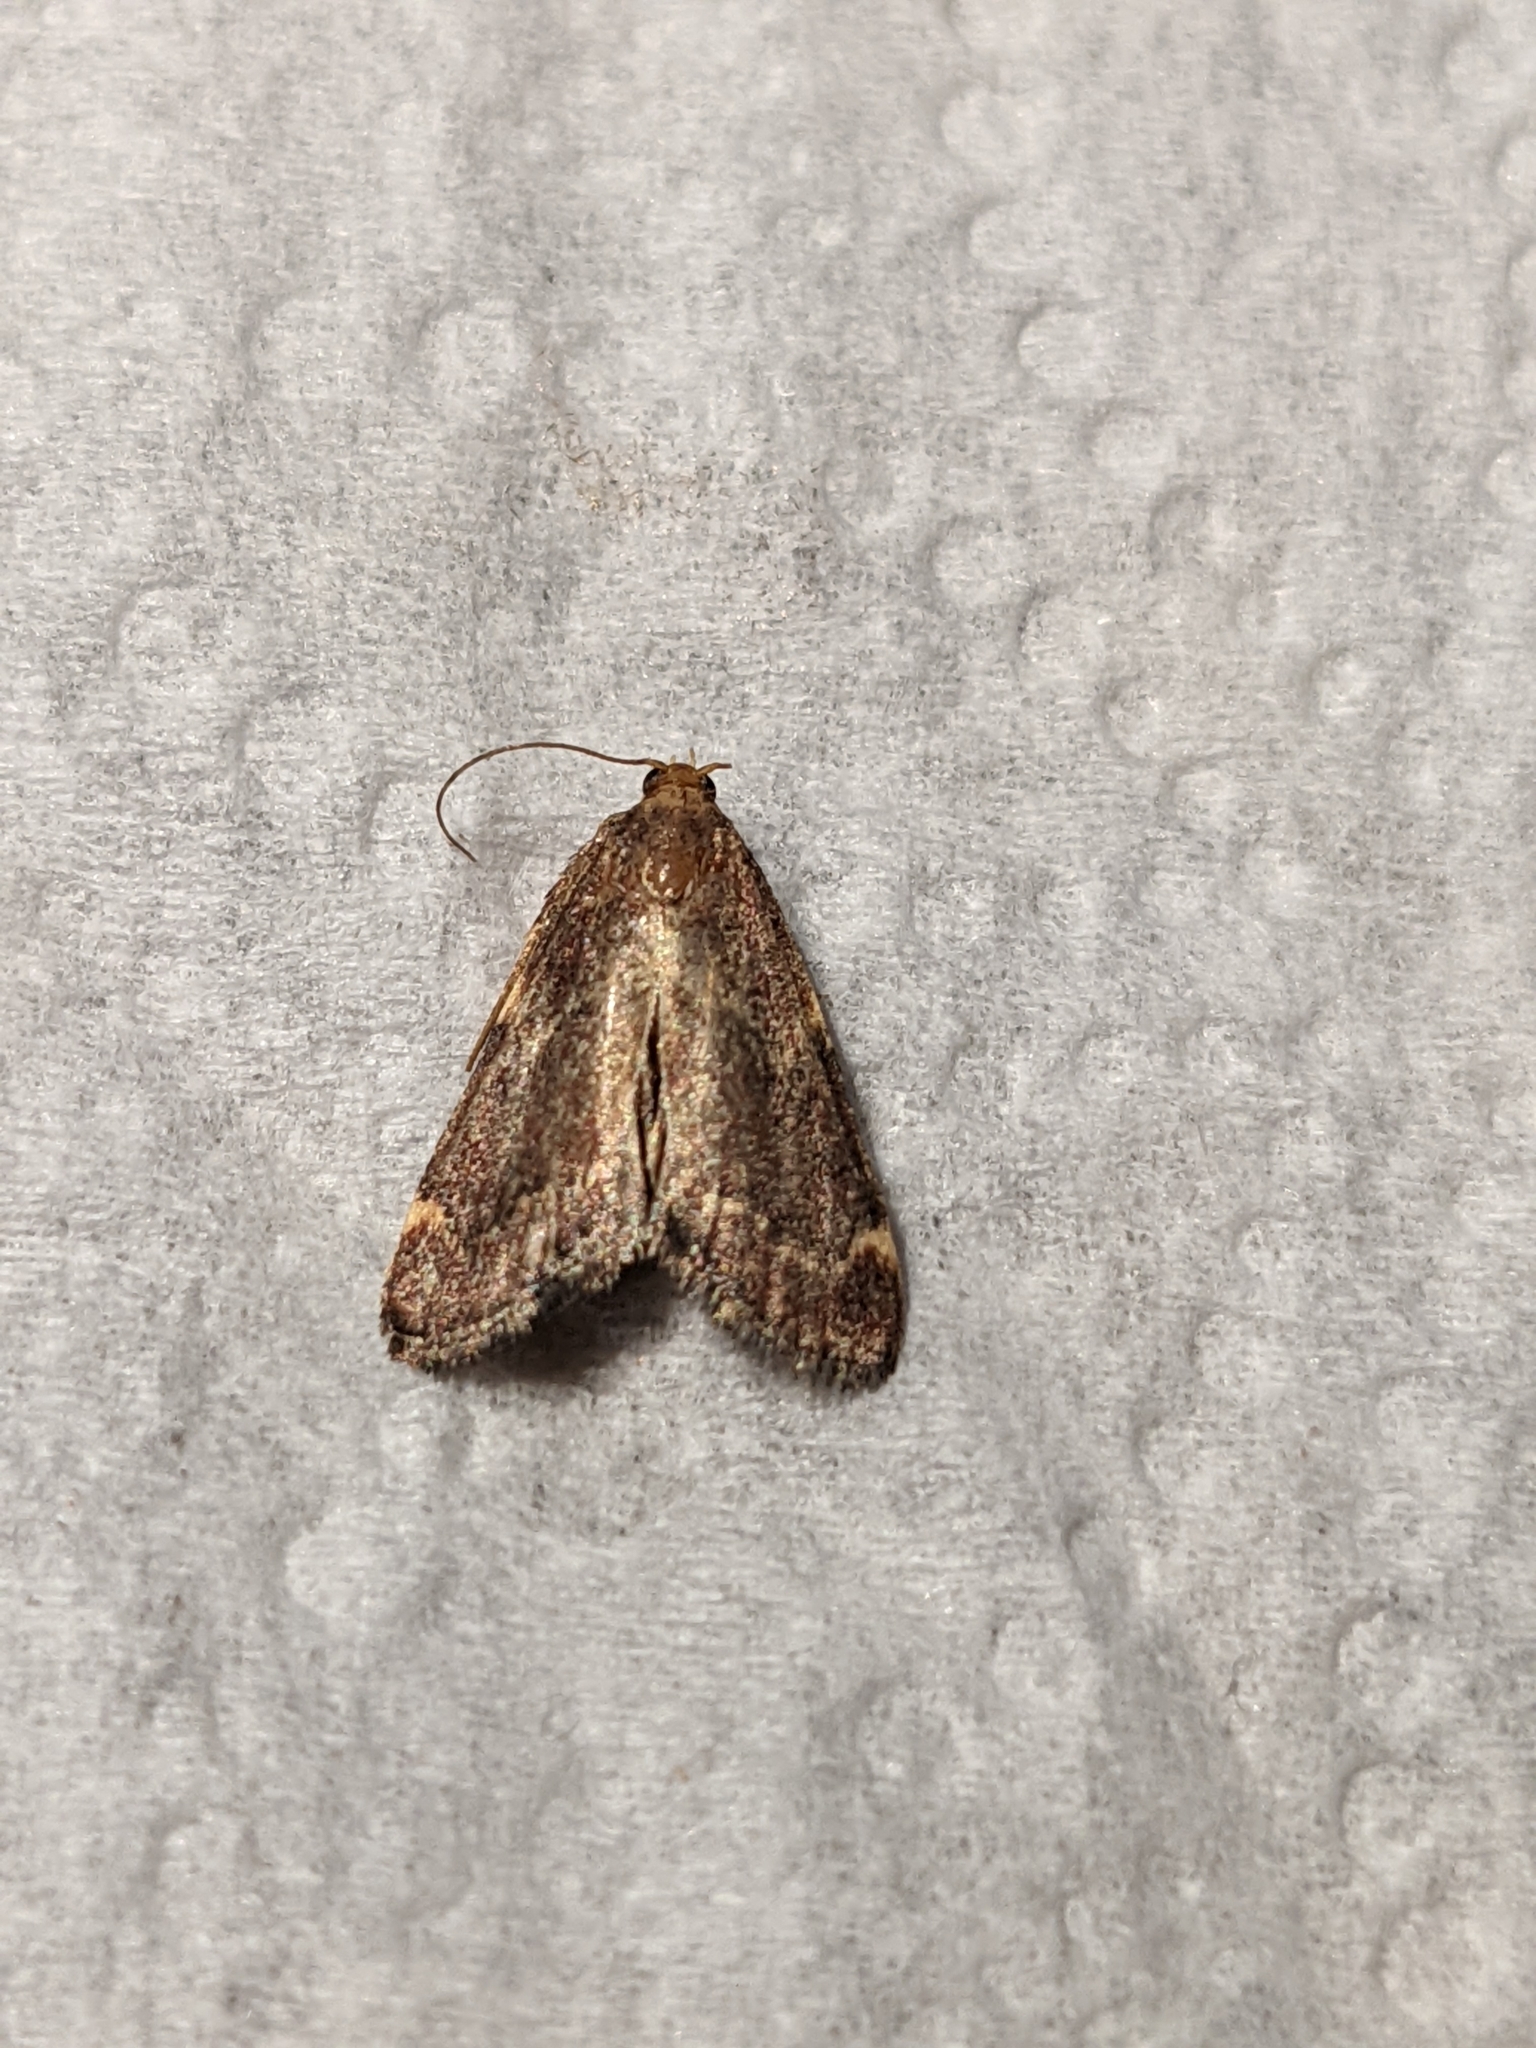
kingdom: Animalia
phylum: Arthropoda
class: Insecta
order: Lepidoptera
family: Pyralidae
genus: Hypsopygia
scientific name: Hypsopygia intermedialis
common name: Red-shawled moth
